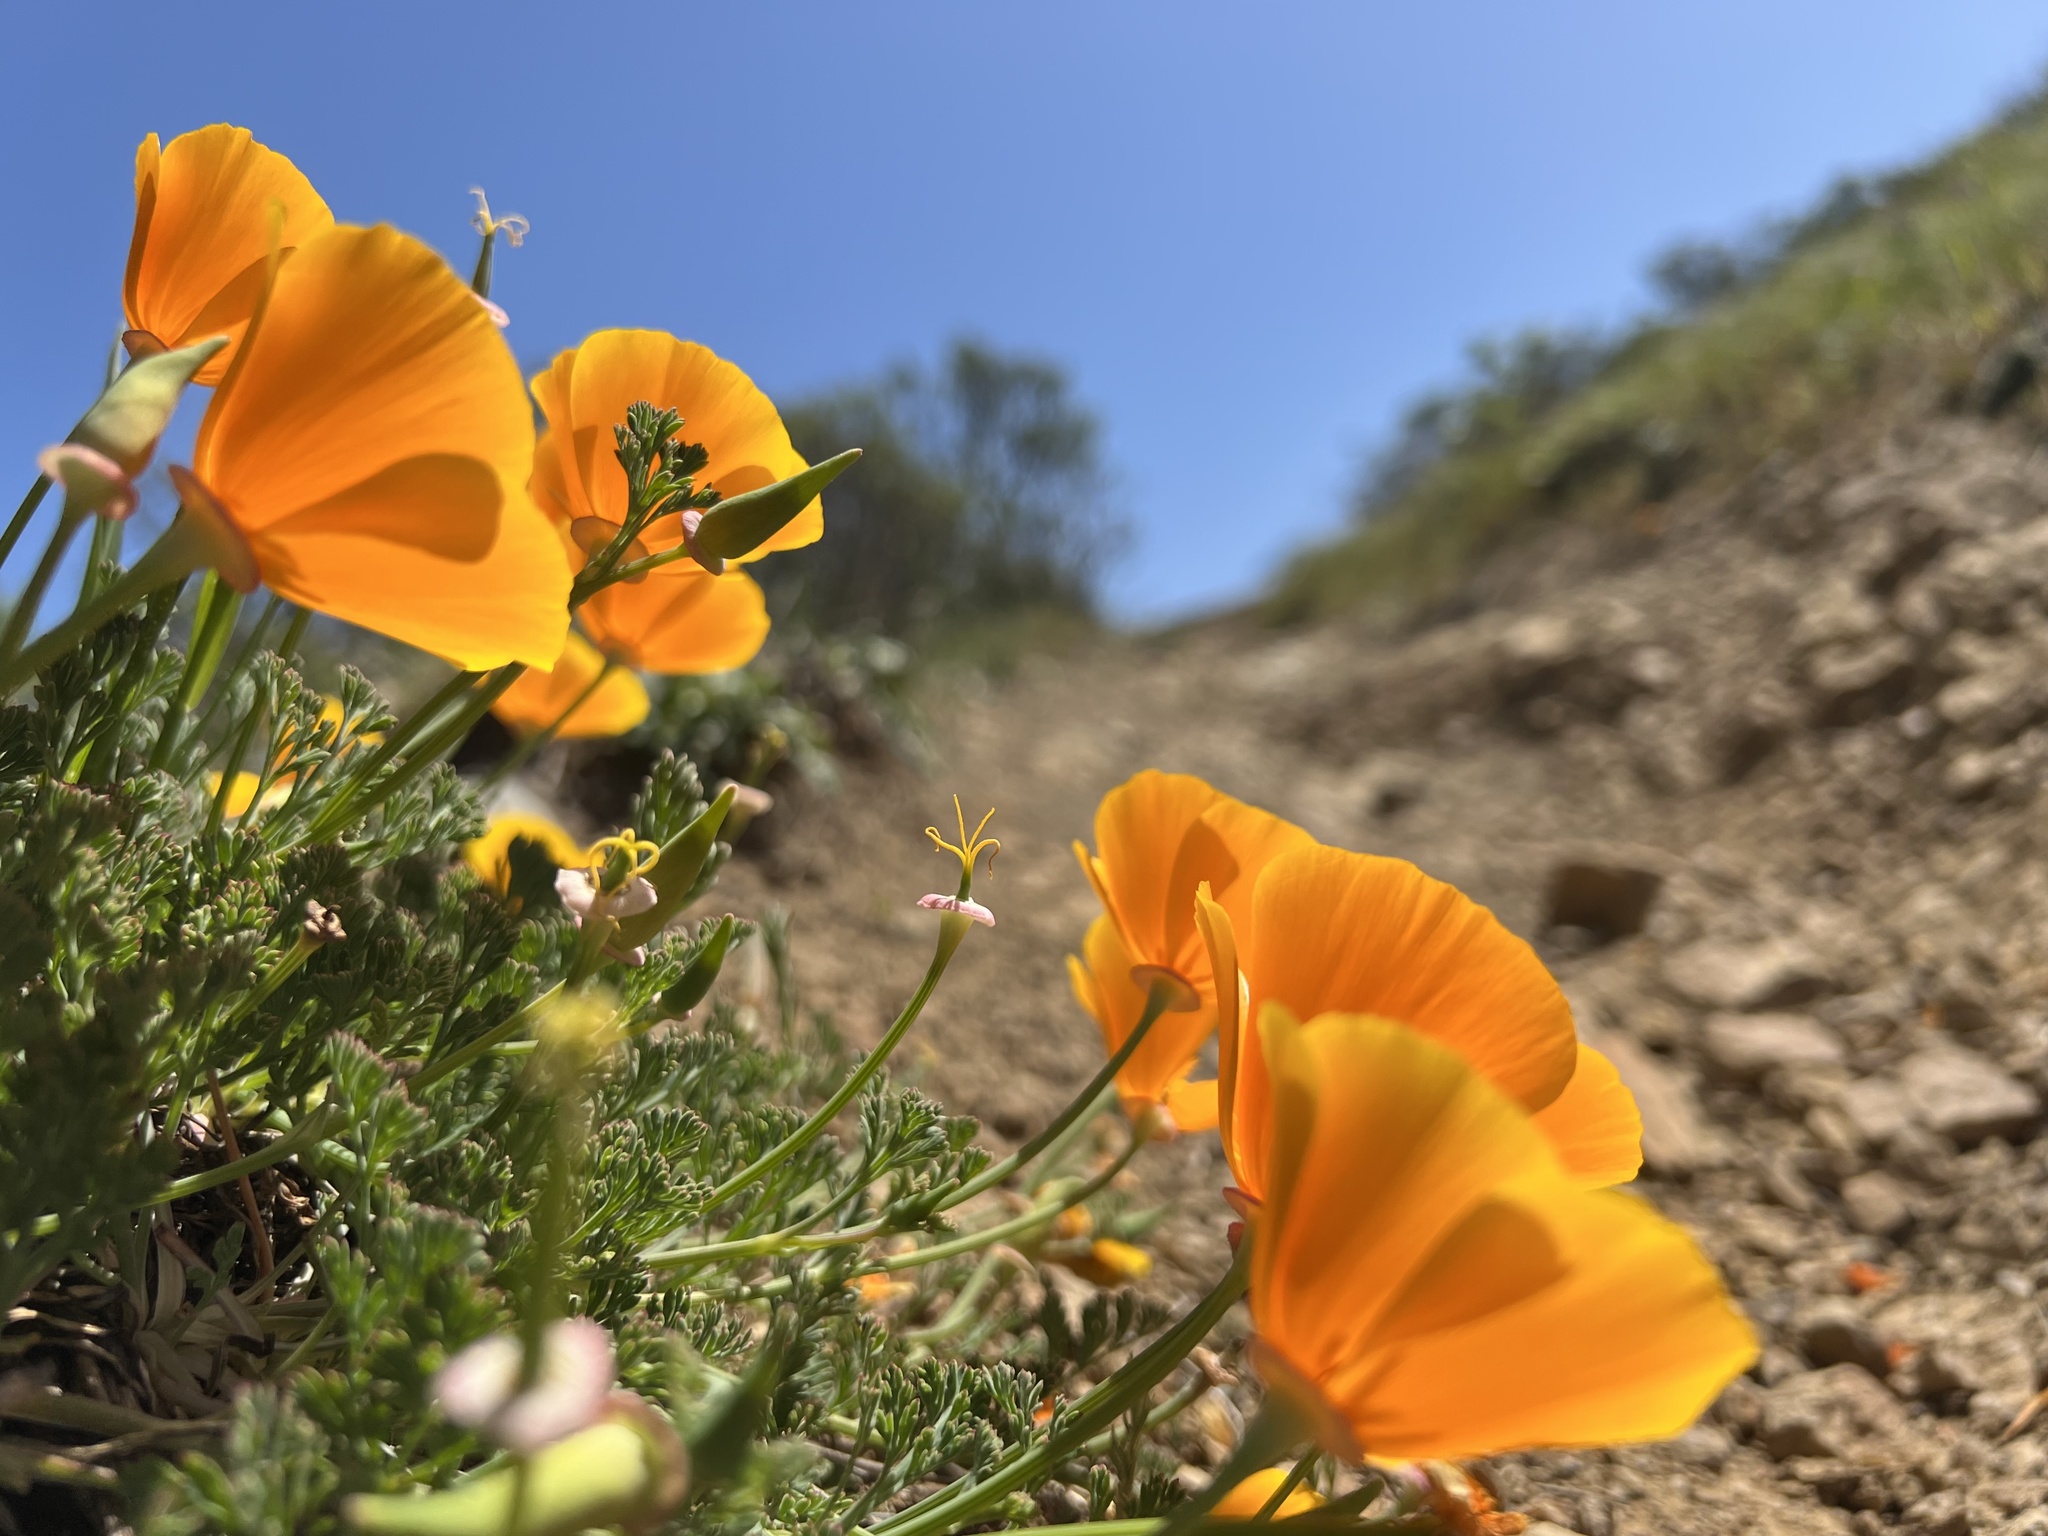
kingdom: Plantae
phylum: Tracheophyta
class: Magnoliopsida
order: Ranunculales
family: Papaveraceae
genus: Eschscholzia
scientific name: Eschscholzia californica
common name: California poppy
